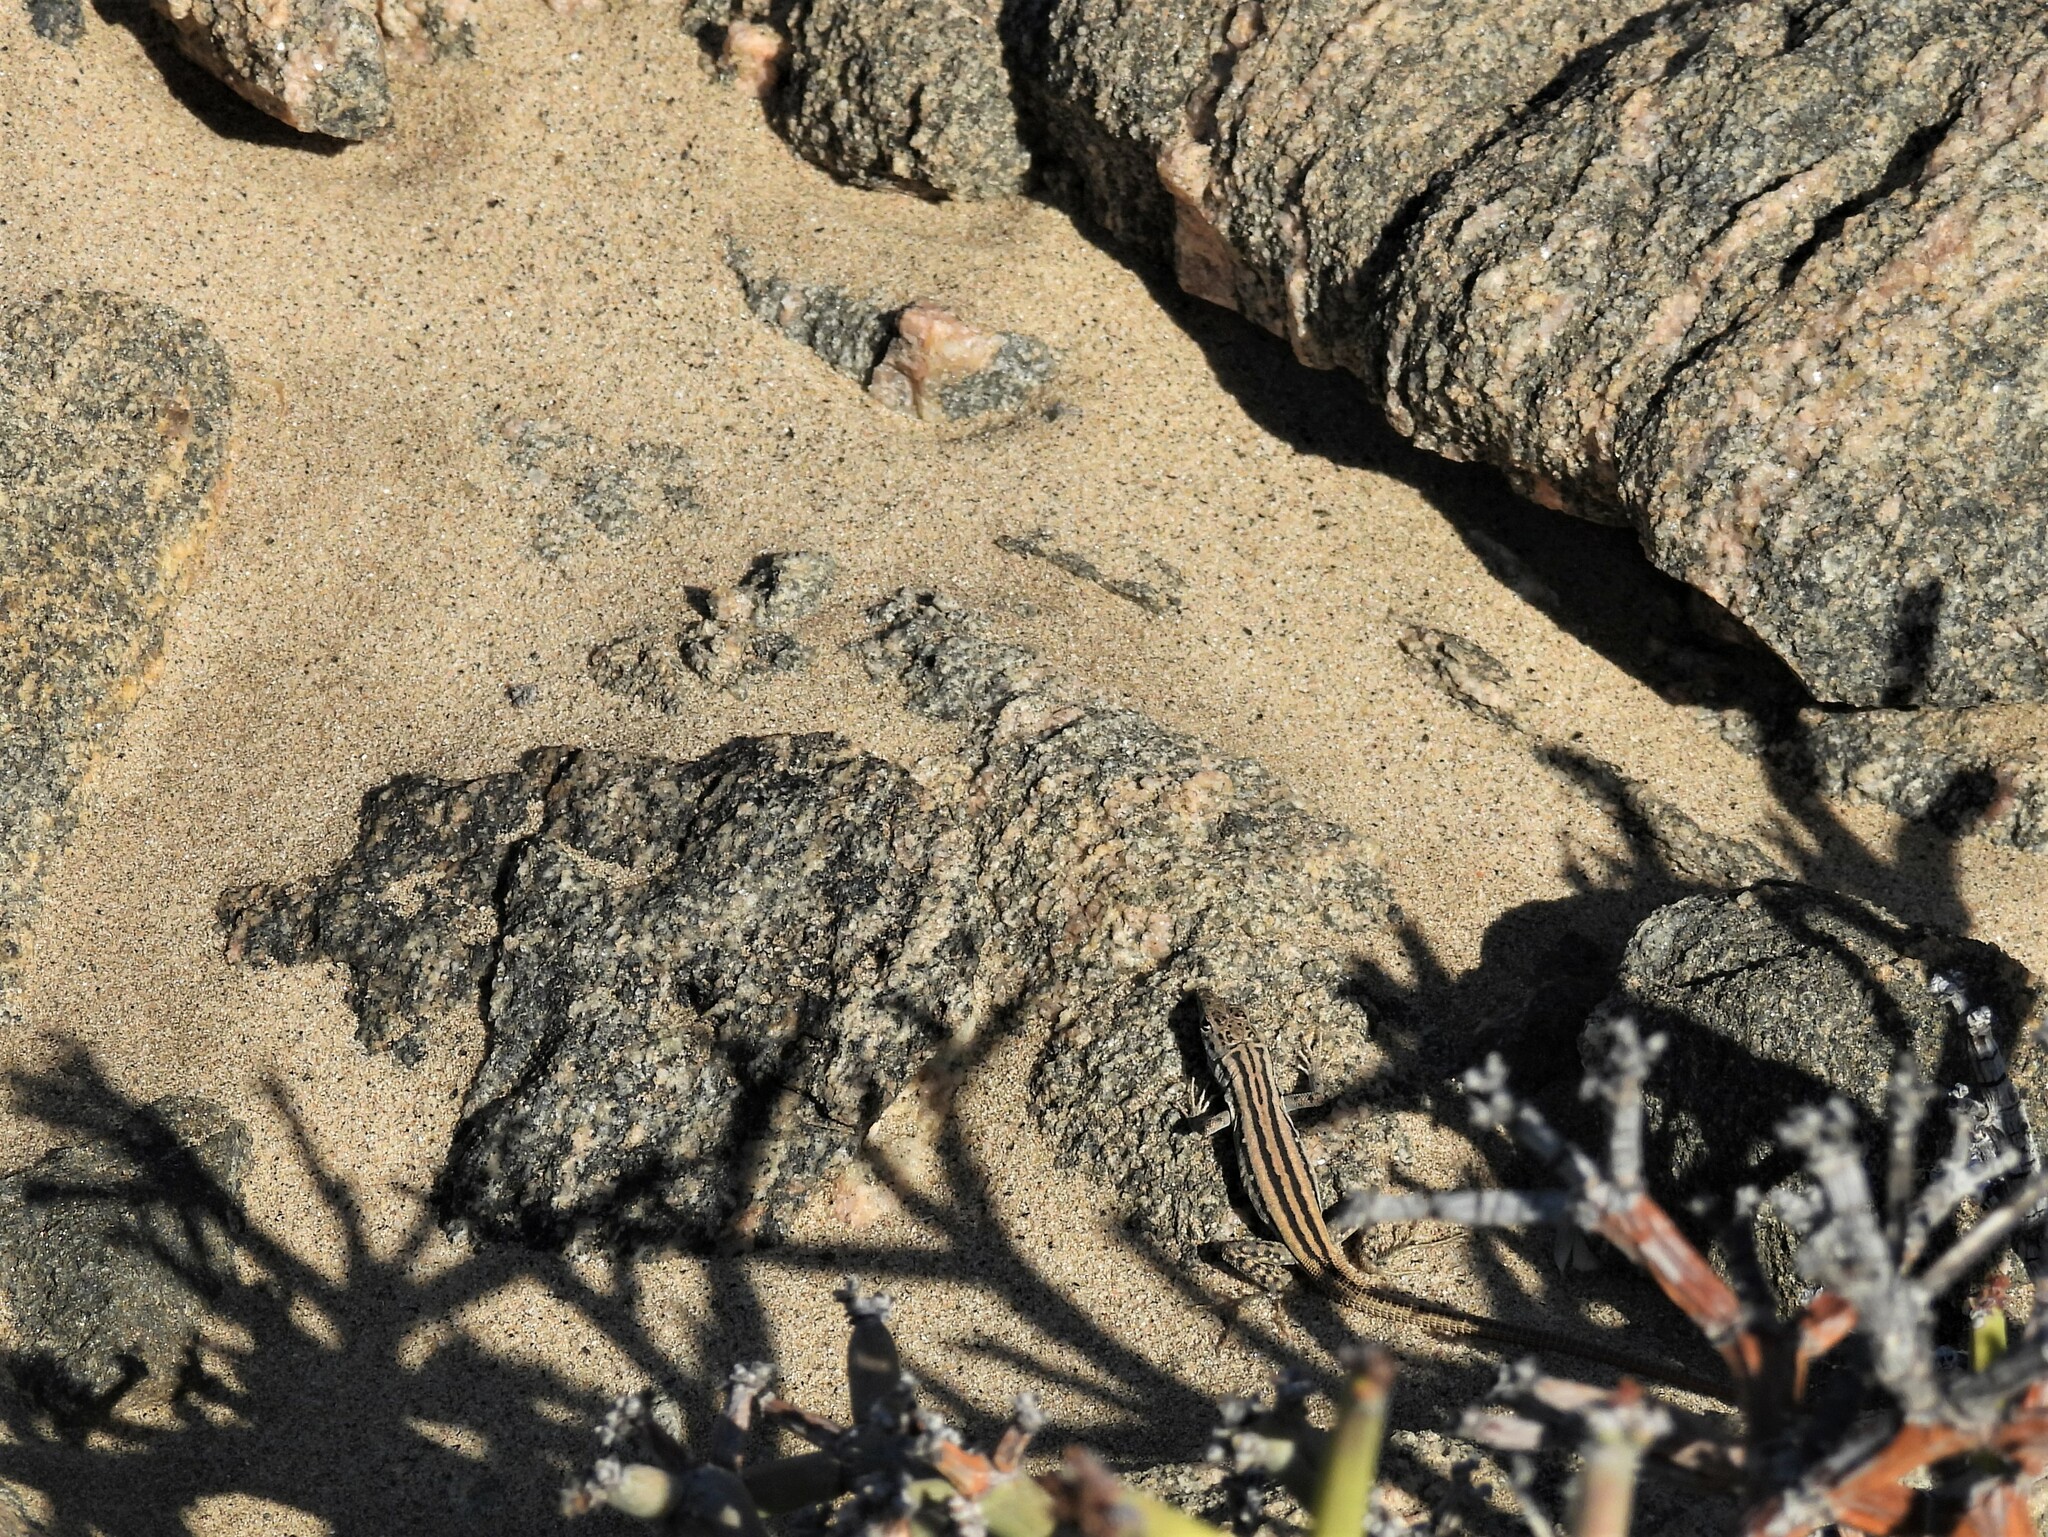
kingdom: Animalia
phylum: Chordata
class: Squamata
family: Lacertidae
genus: Pedioplanis
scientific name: Pedioplanis lineoocellata
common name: Spotted sand lizard
